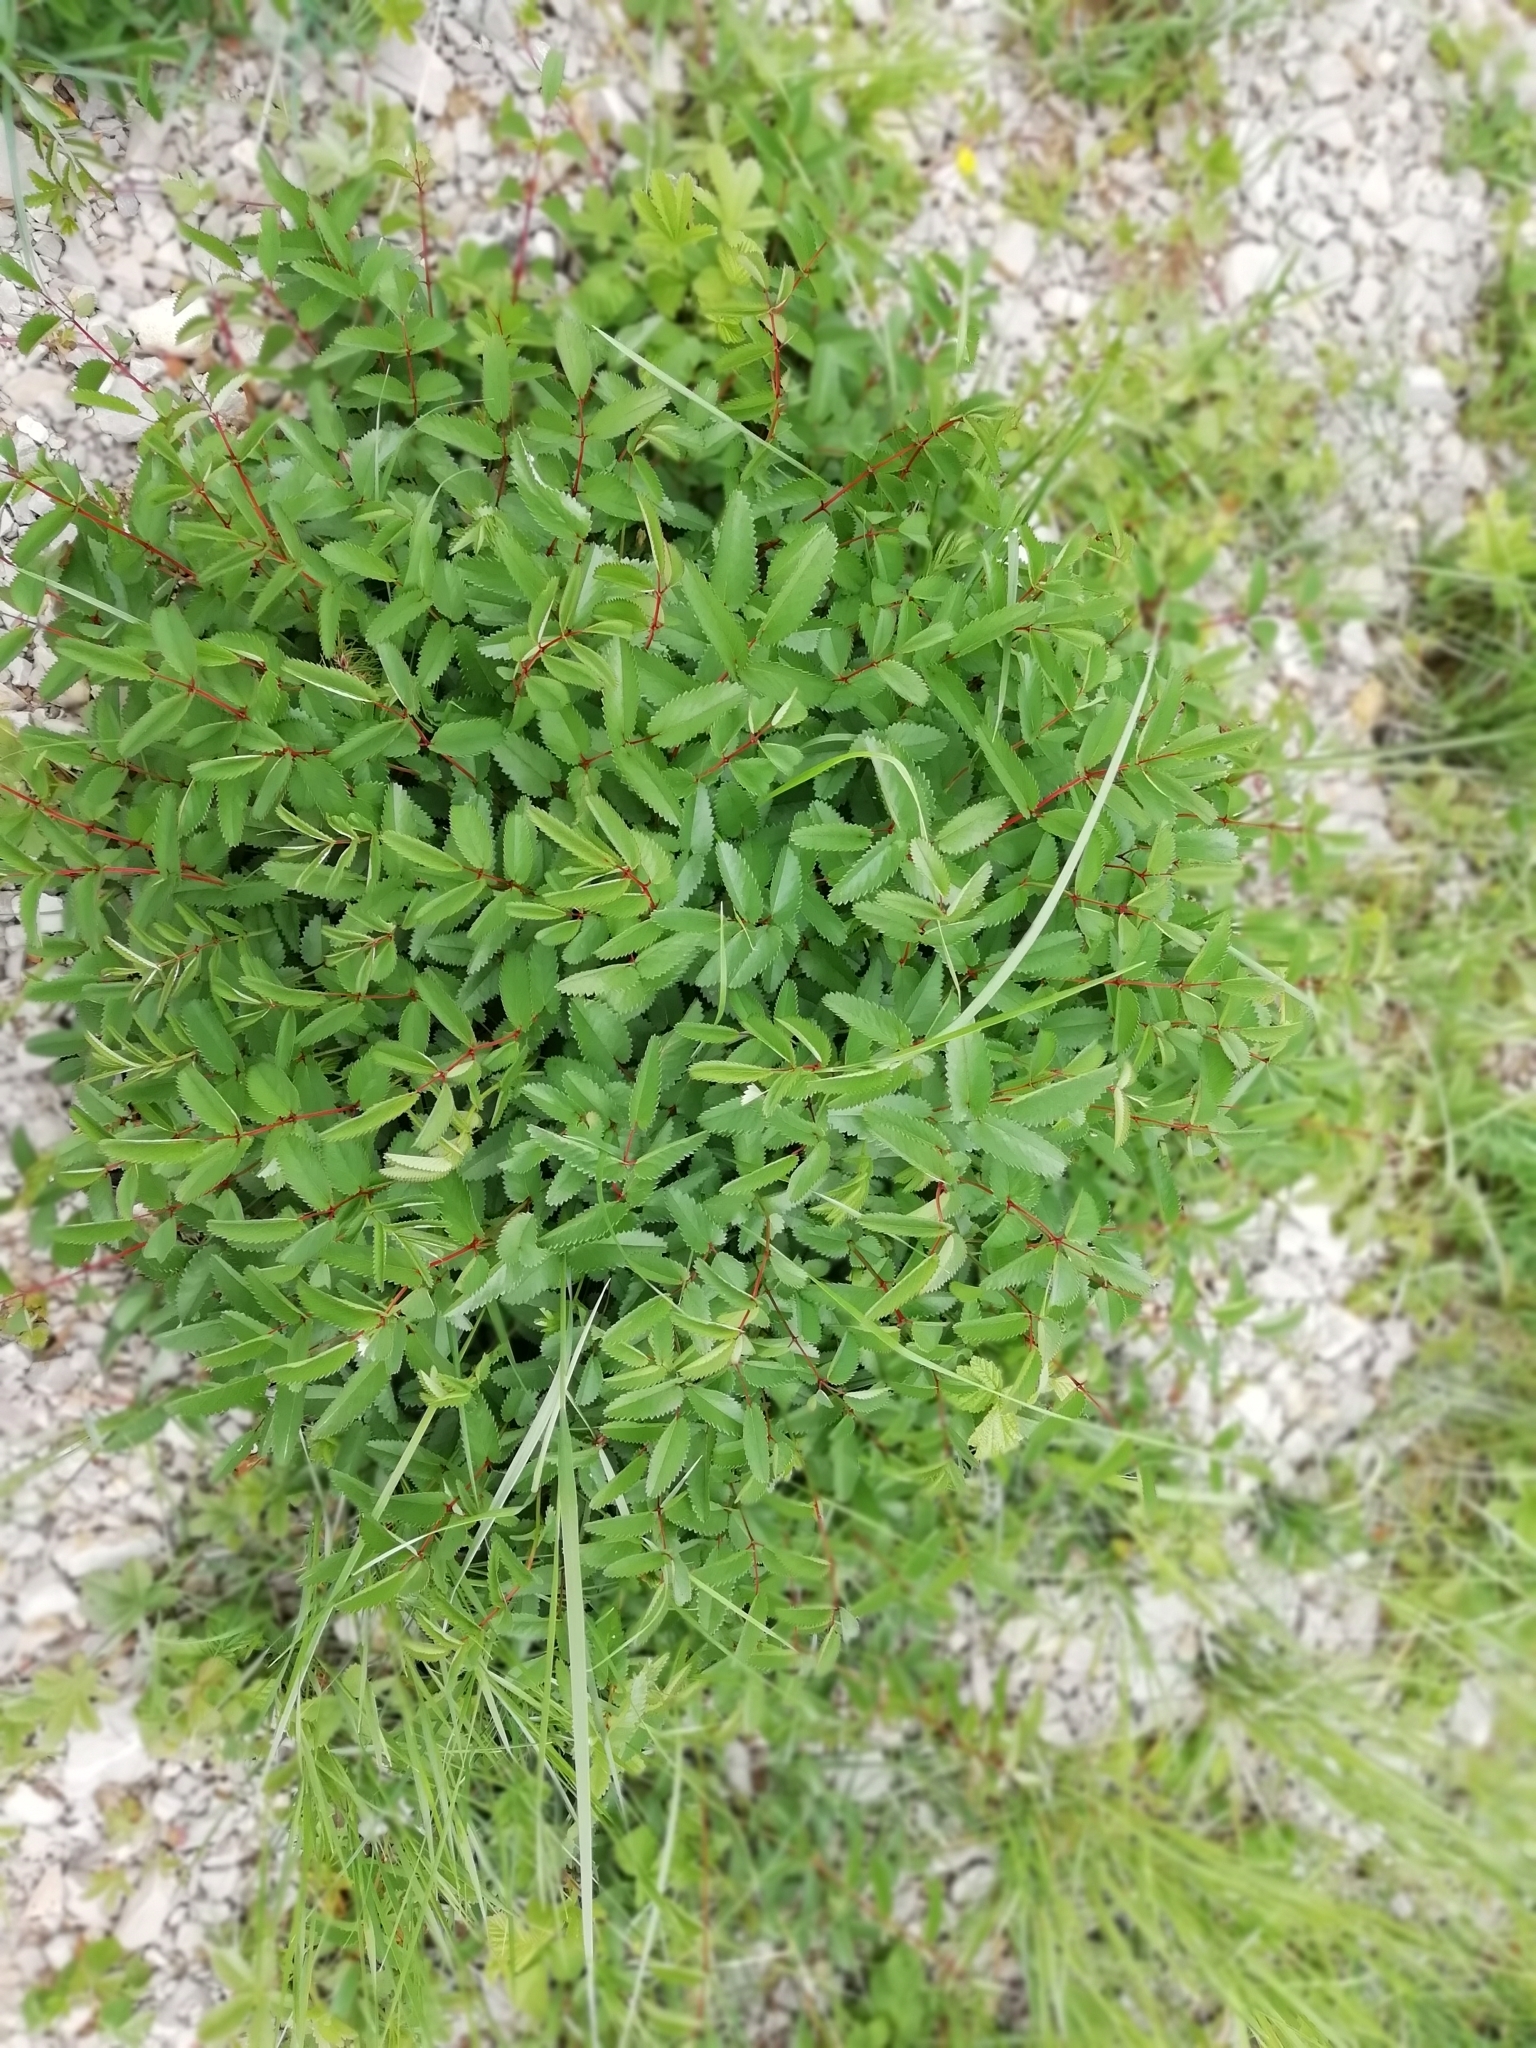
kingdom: Plantae
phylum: Tracheophyta
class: Magnoliopsida
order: Rosales
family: Rosaceae
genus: Sanguisorba
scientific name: Sanguisorba officinalis
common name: Great burnet
